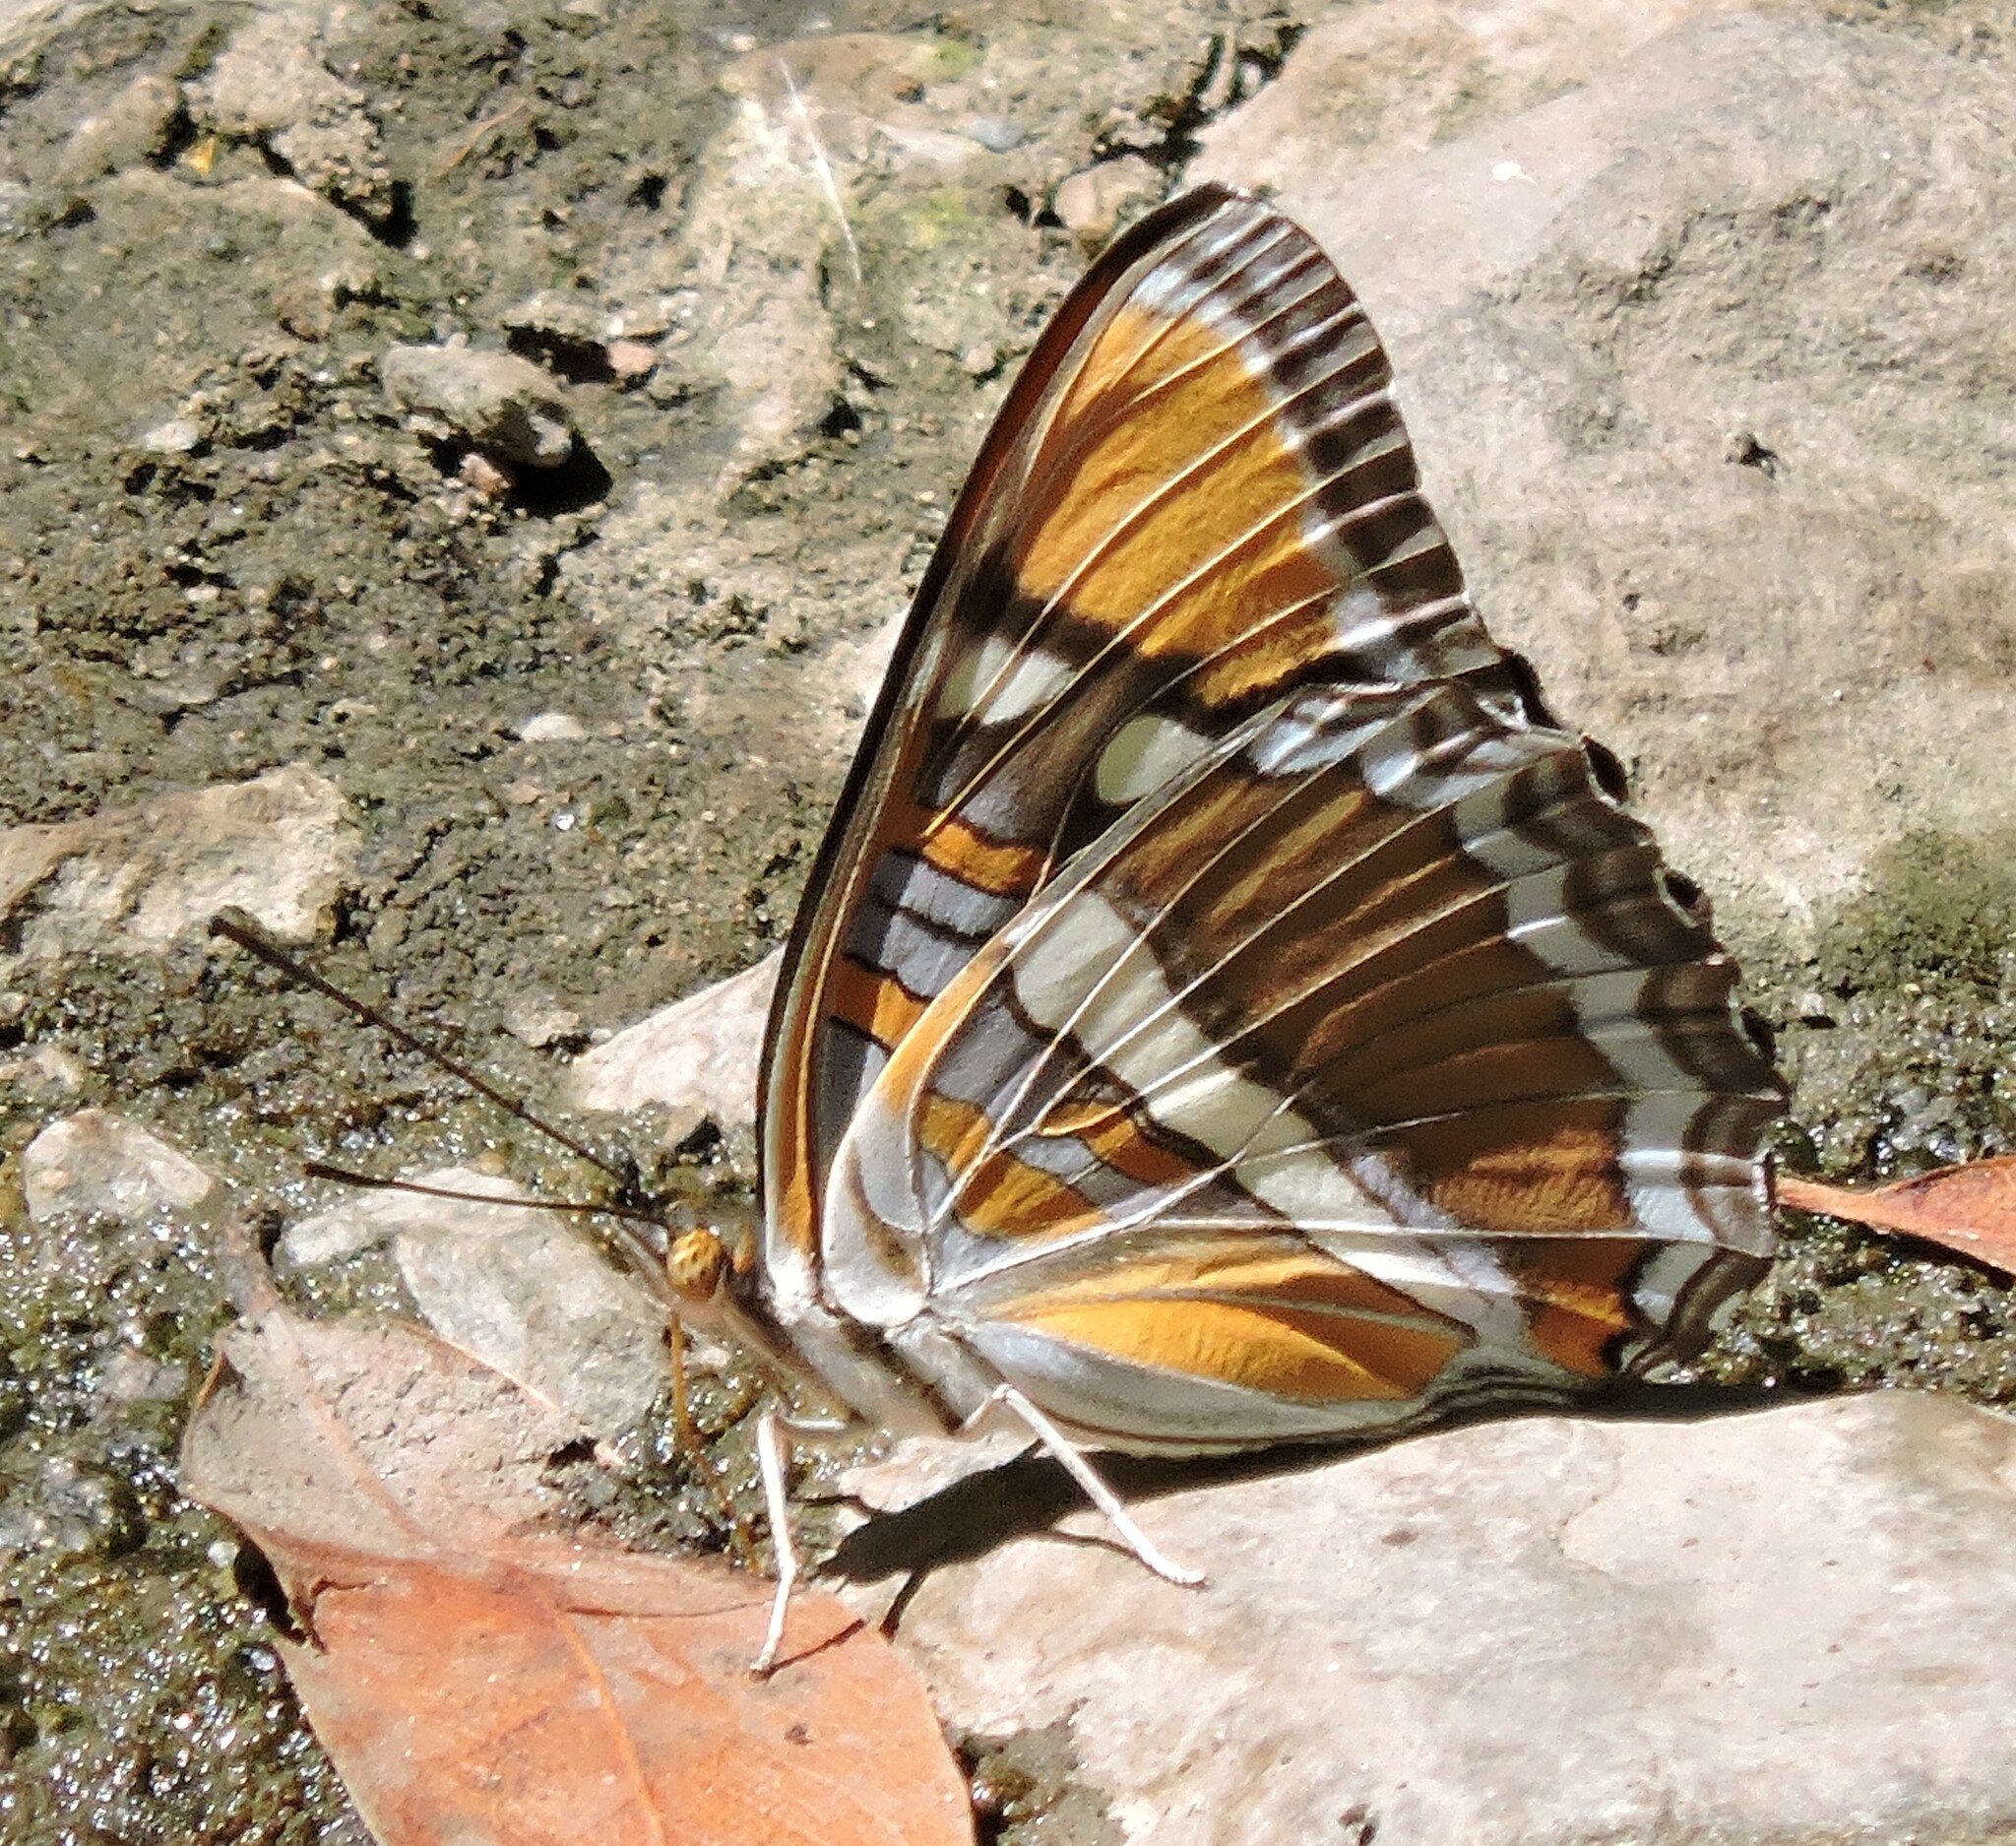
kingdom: Animalia
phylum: Arthropoda
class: Insecta
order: Lepidoptera
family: Nymphalidae
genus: Limenitis
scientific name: Limenitis bredowii
